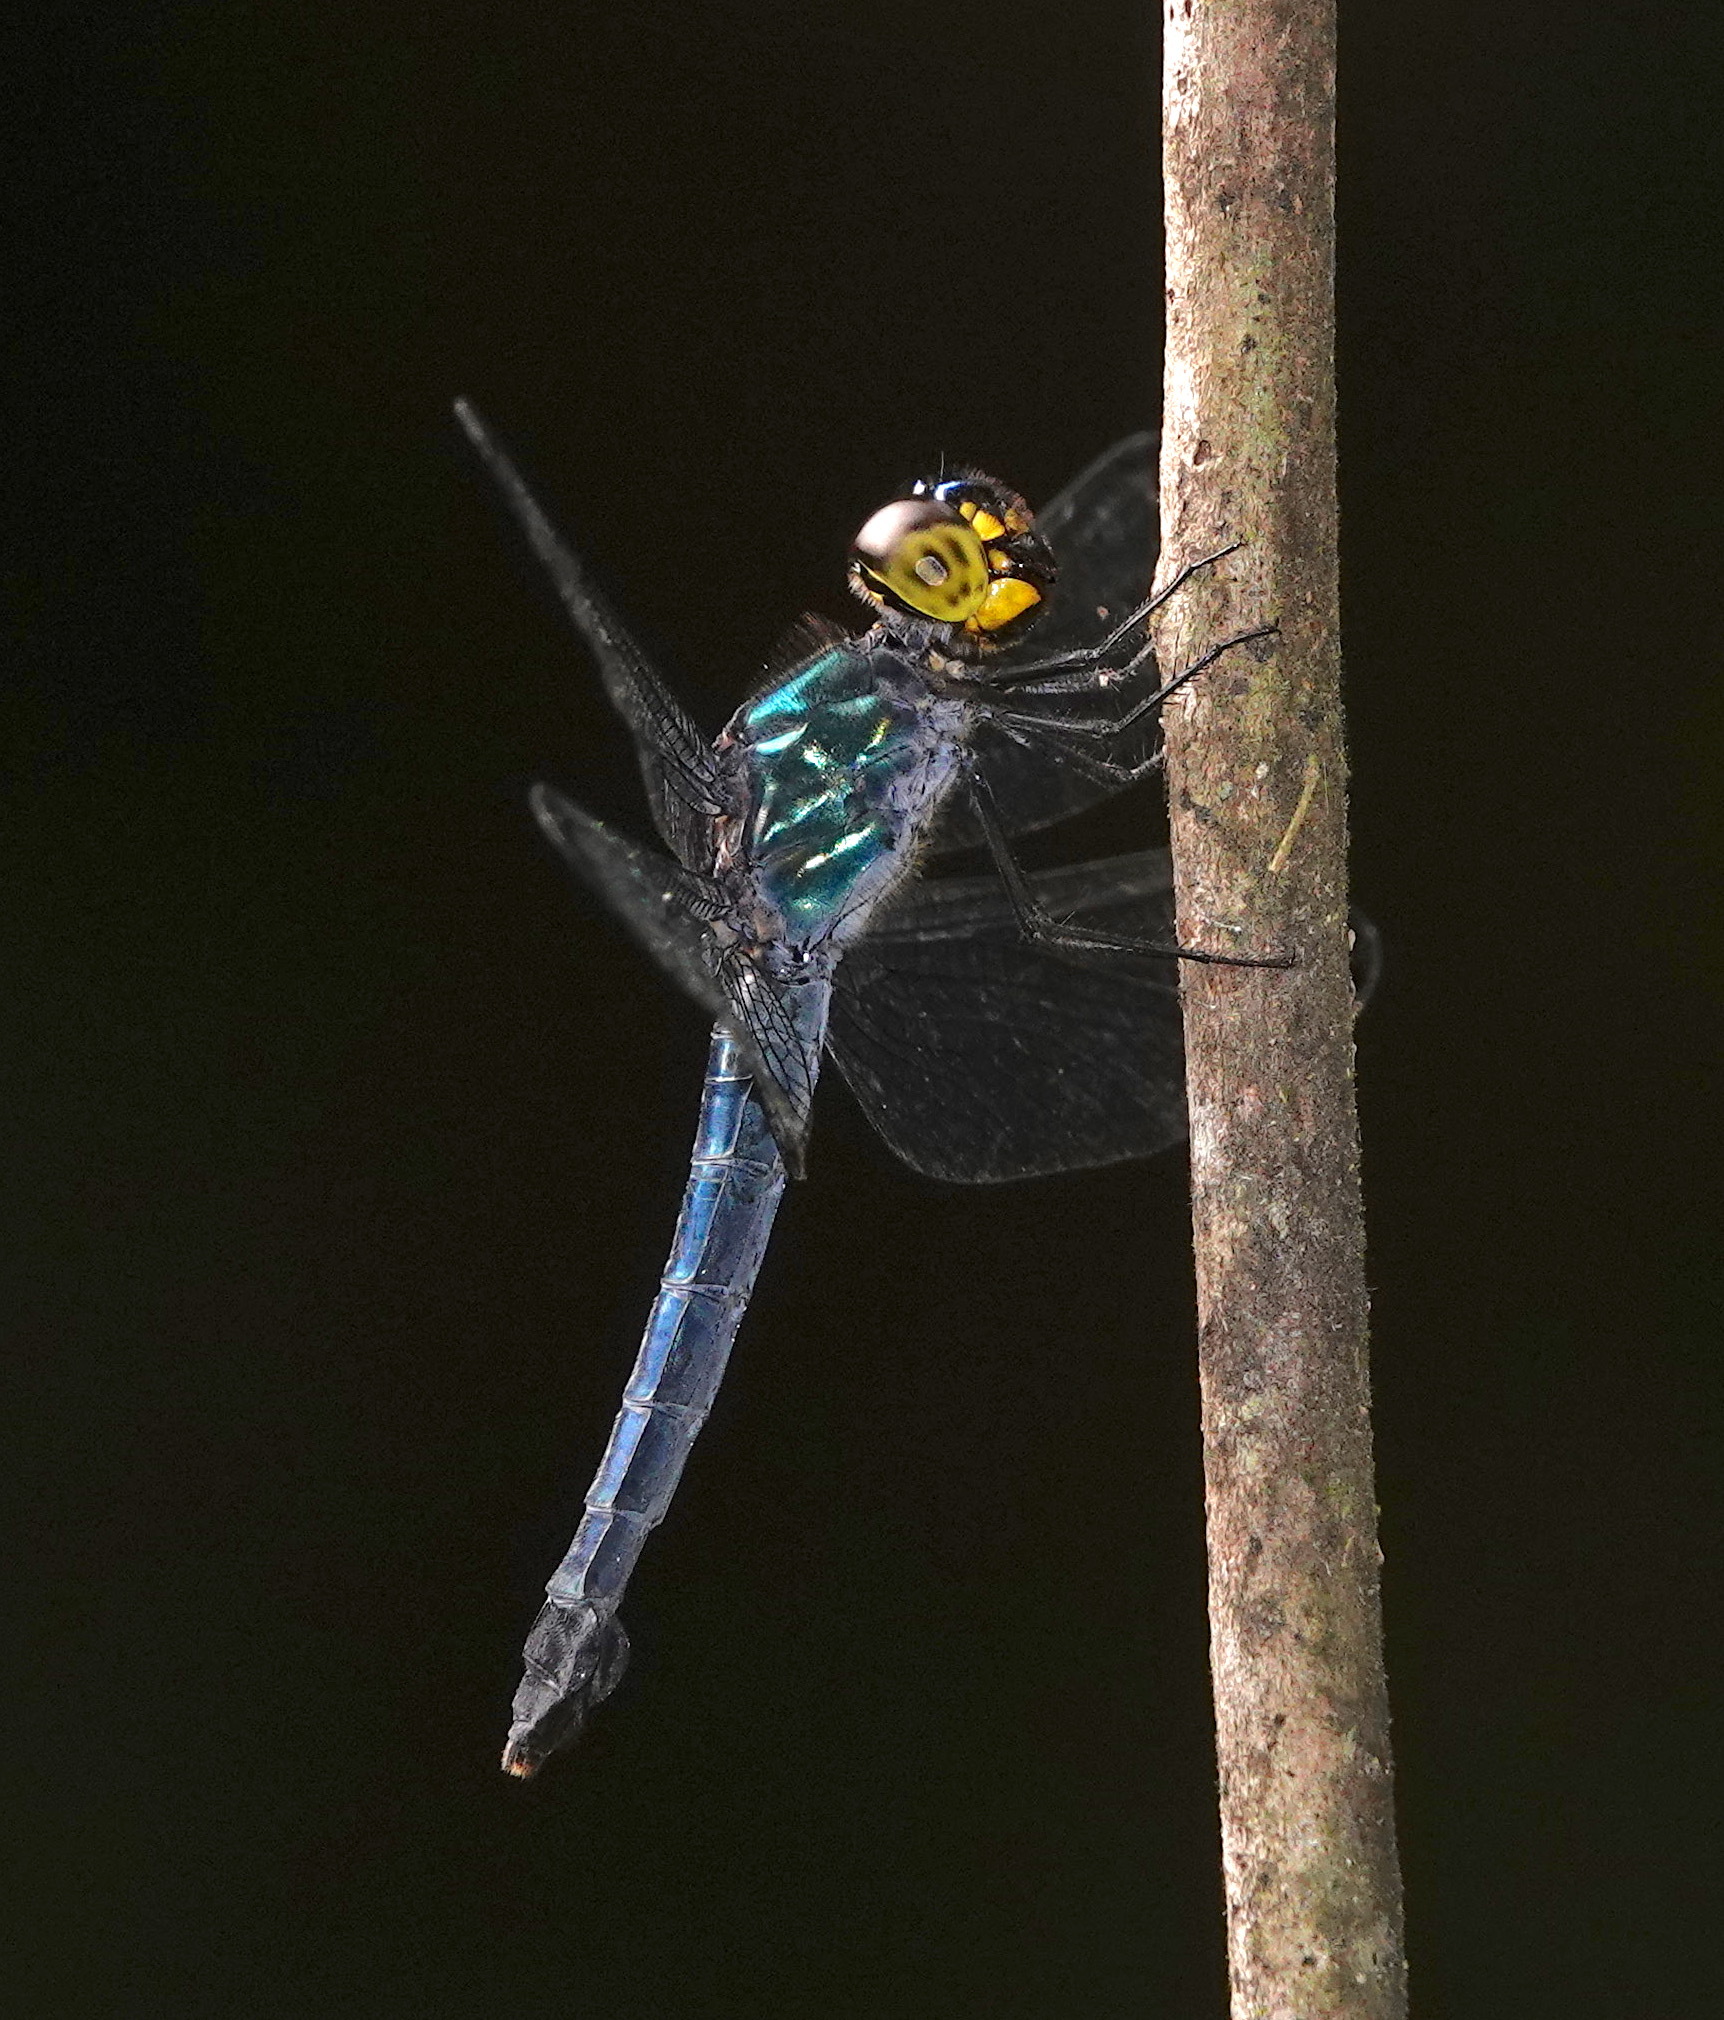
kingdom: Animalia
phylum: Arthropoda
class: Insecta
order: Odonata
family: Libellulidae
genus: Cratilla
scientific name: Cratilla metallica
